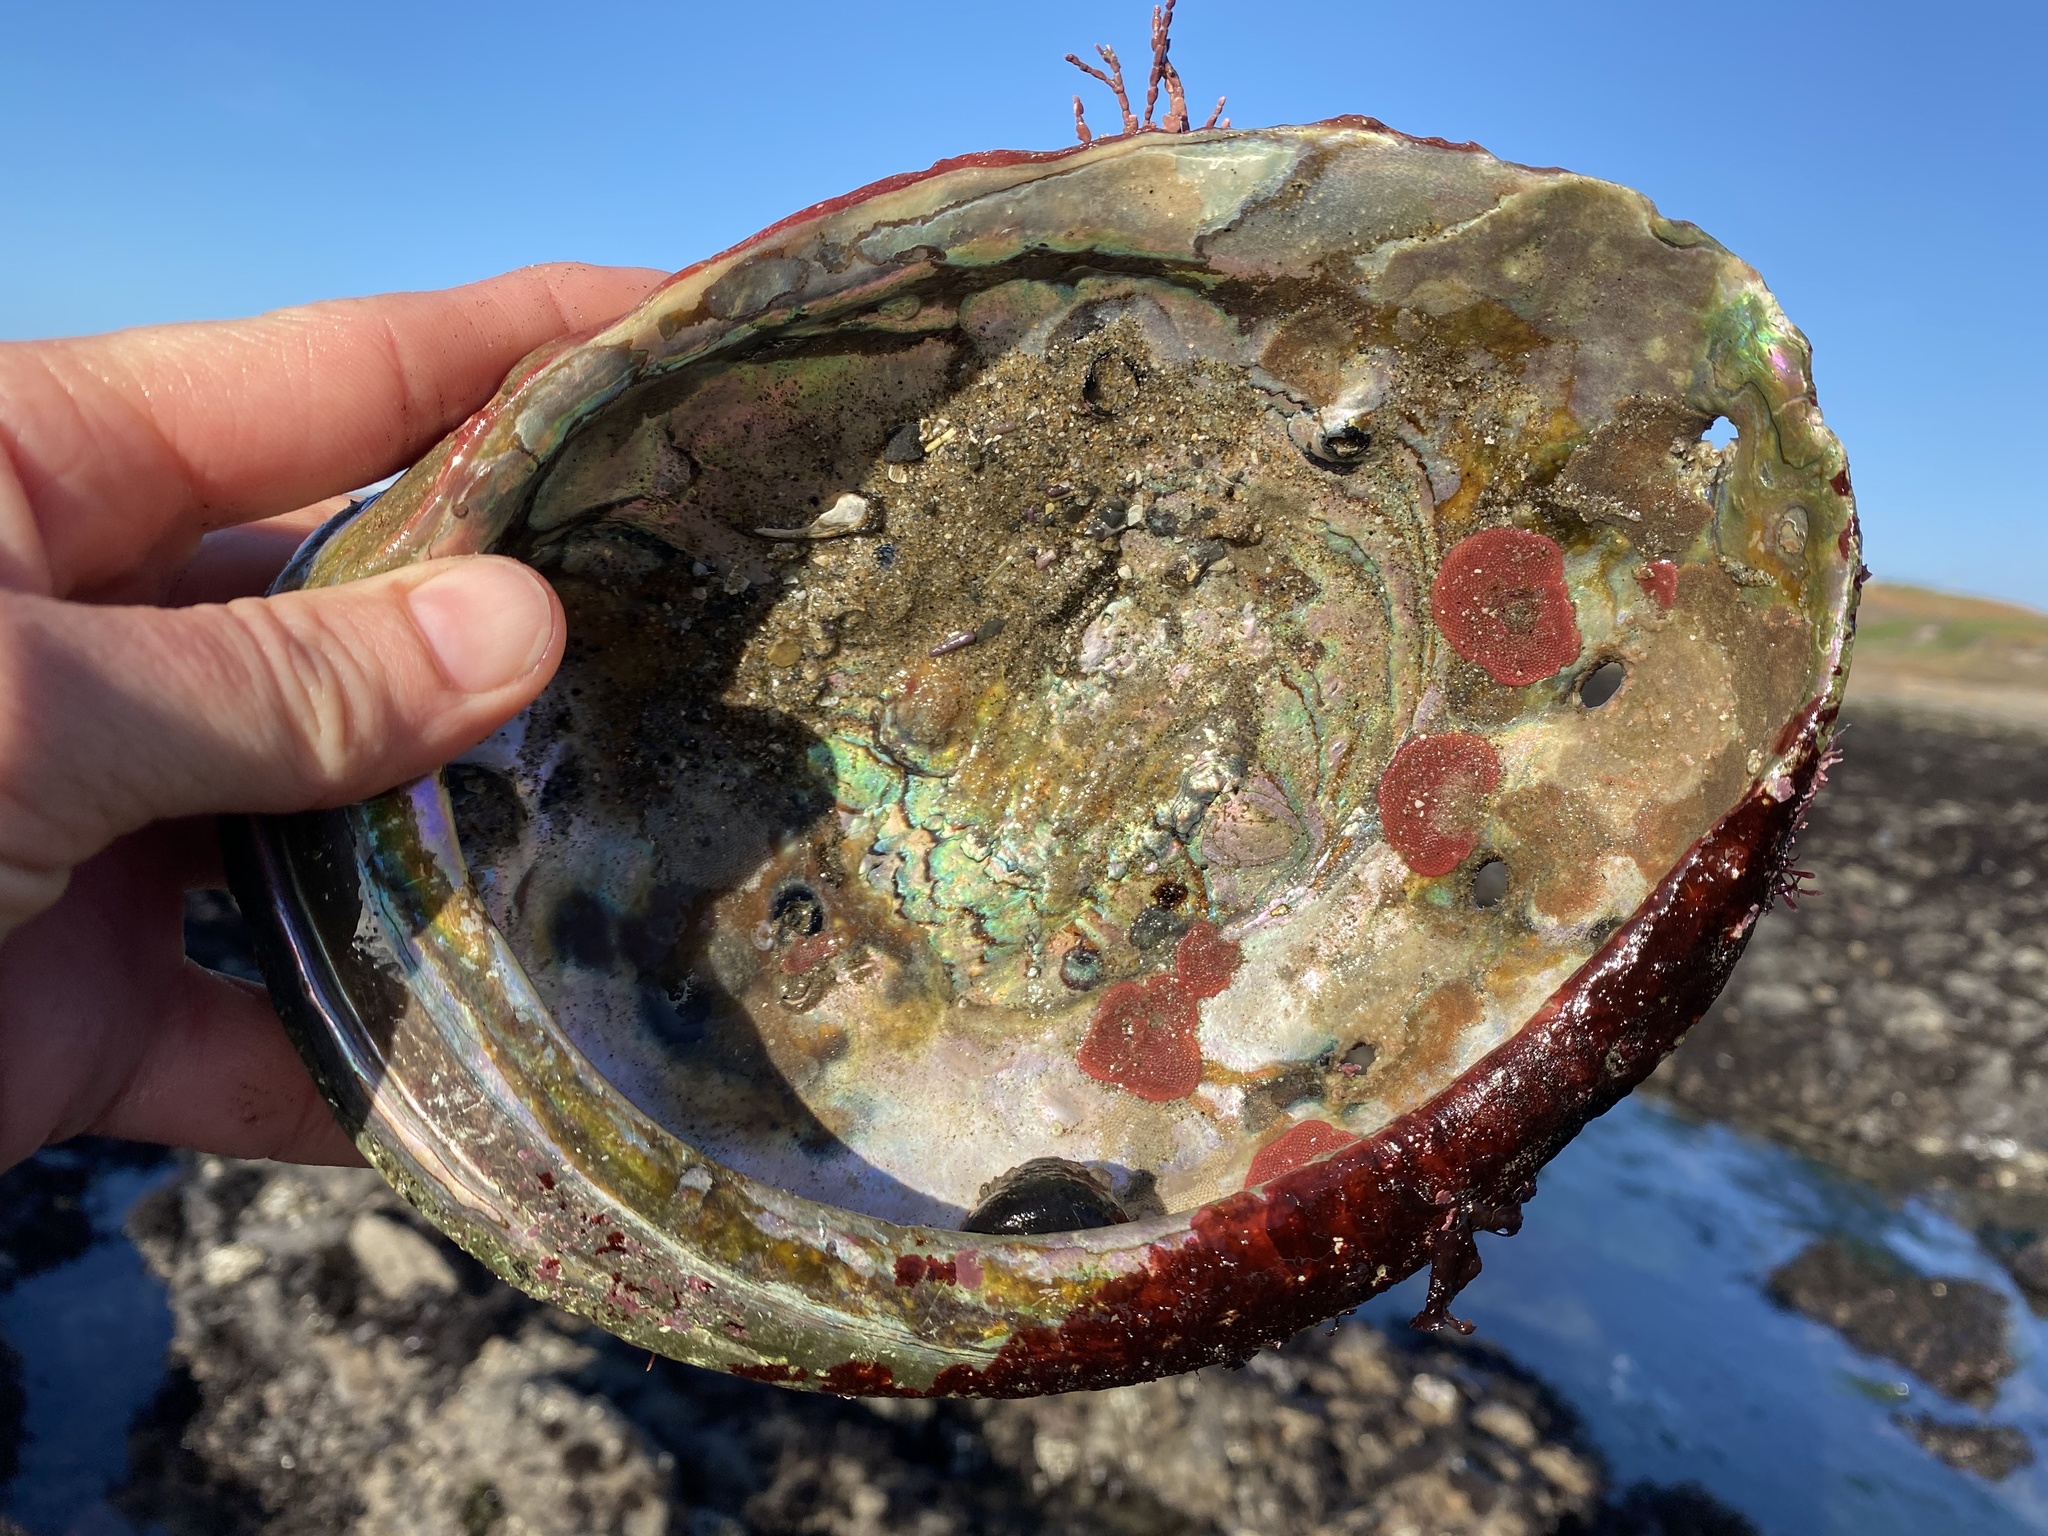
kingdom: Animalia
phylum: Mollusca
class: Gastropoda
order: Lepetellida
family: Haliotidae
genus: Haliotis
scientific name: Haliotis rufescens
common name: Red abalone
